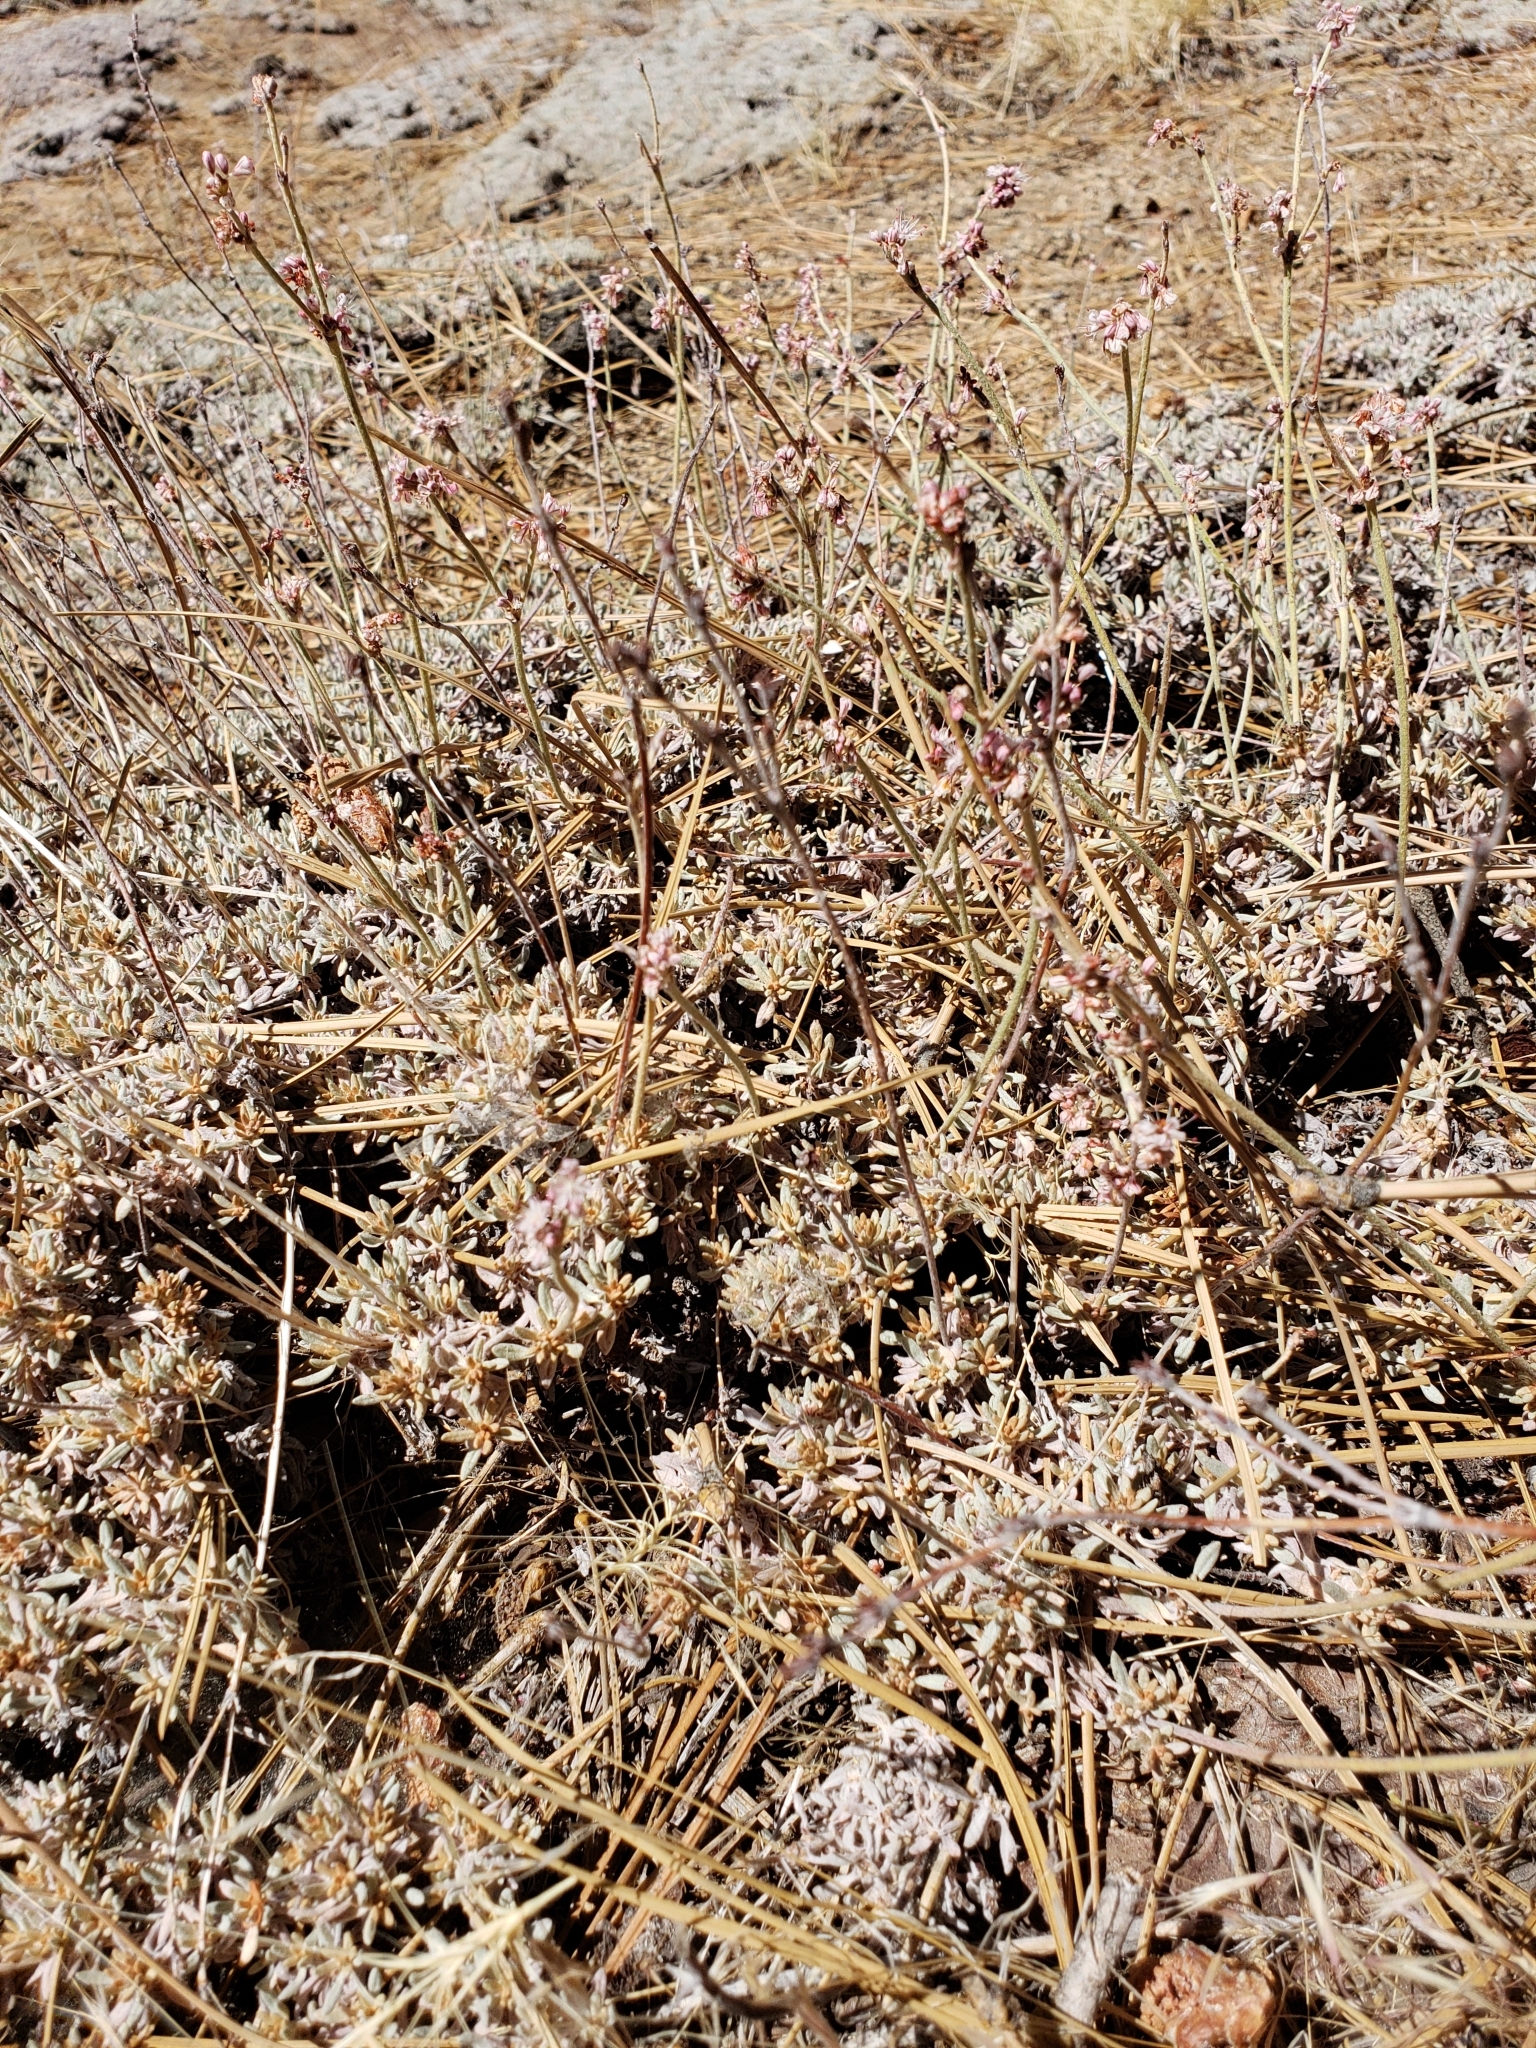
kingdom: Plantae
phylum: Tracheophyta
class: Magnoliopsida
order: Caryophyllales
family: Polygonaceae
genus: Eriogonum
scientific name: Eriogonum kennedyi
